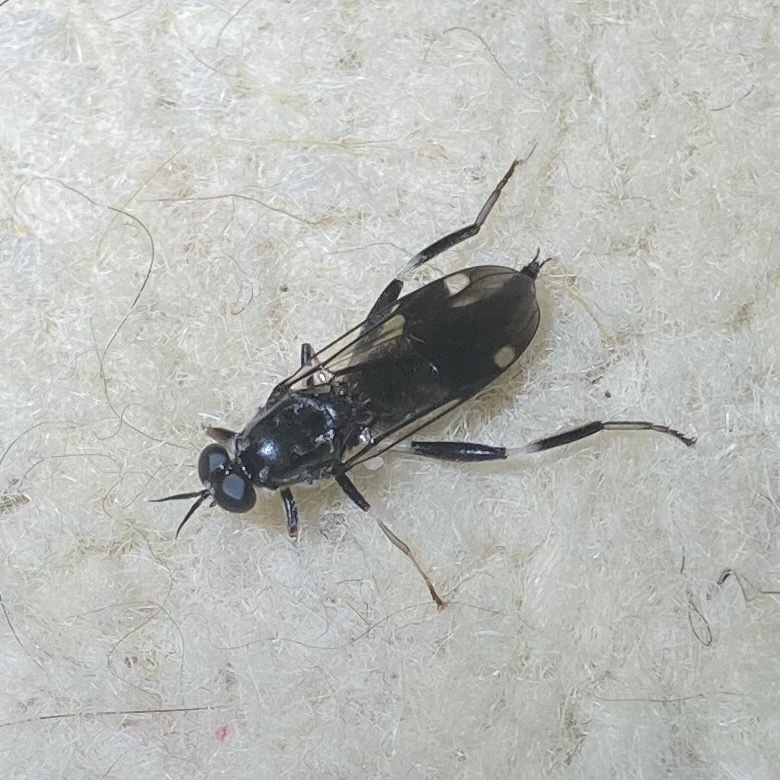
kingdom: Animalia
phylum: Arthropoda
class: Insecta
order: Diptera
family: Stratiomyidae
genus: Exaireta
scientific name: Exaireta spinigera
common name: Blue soldier fly
